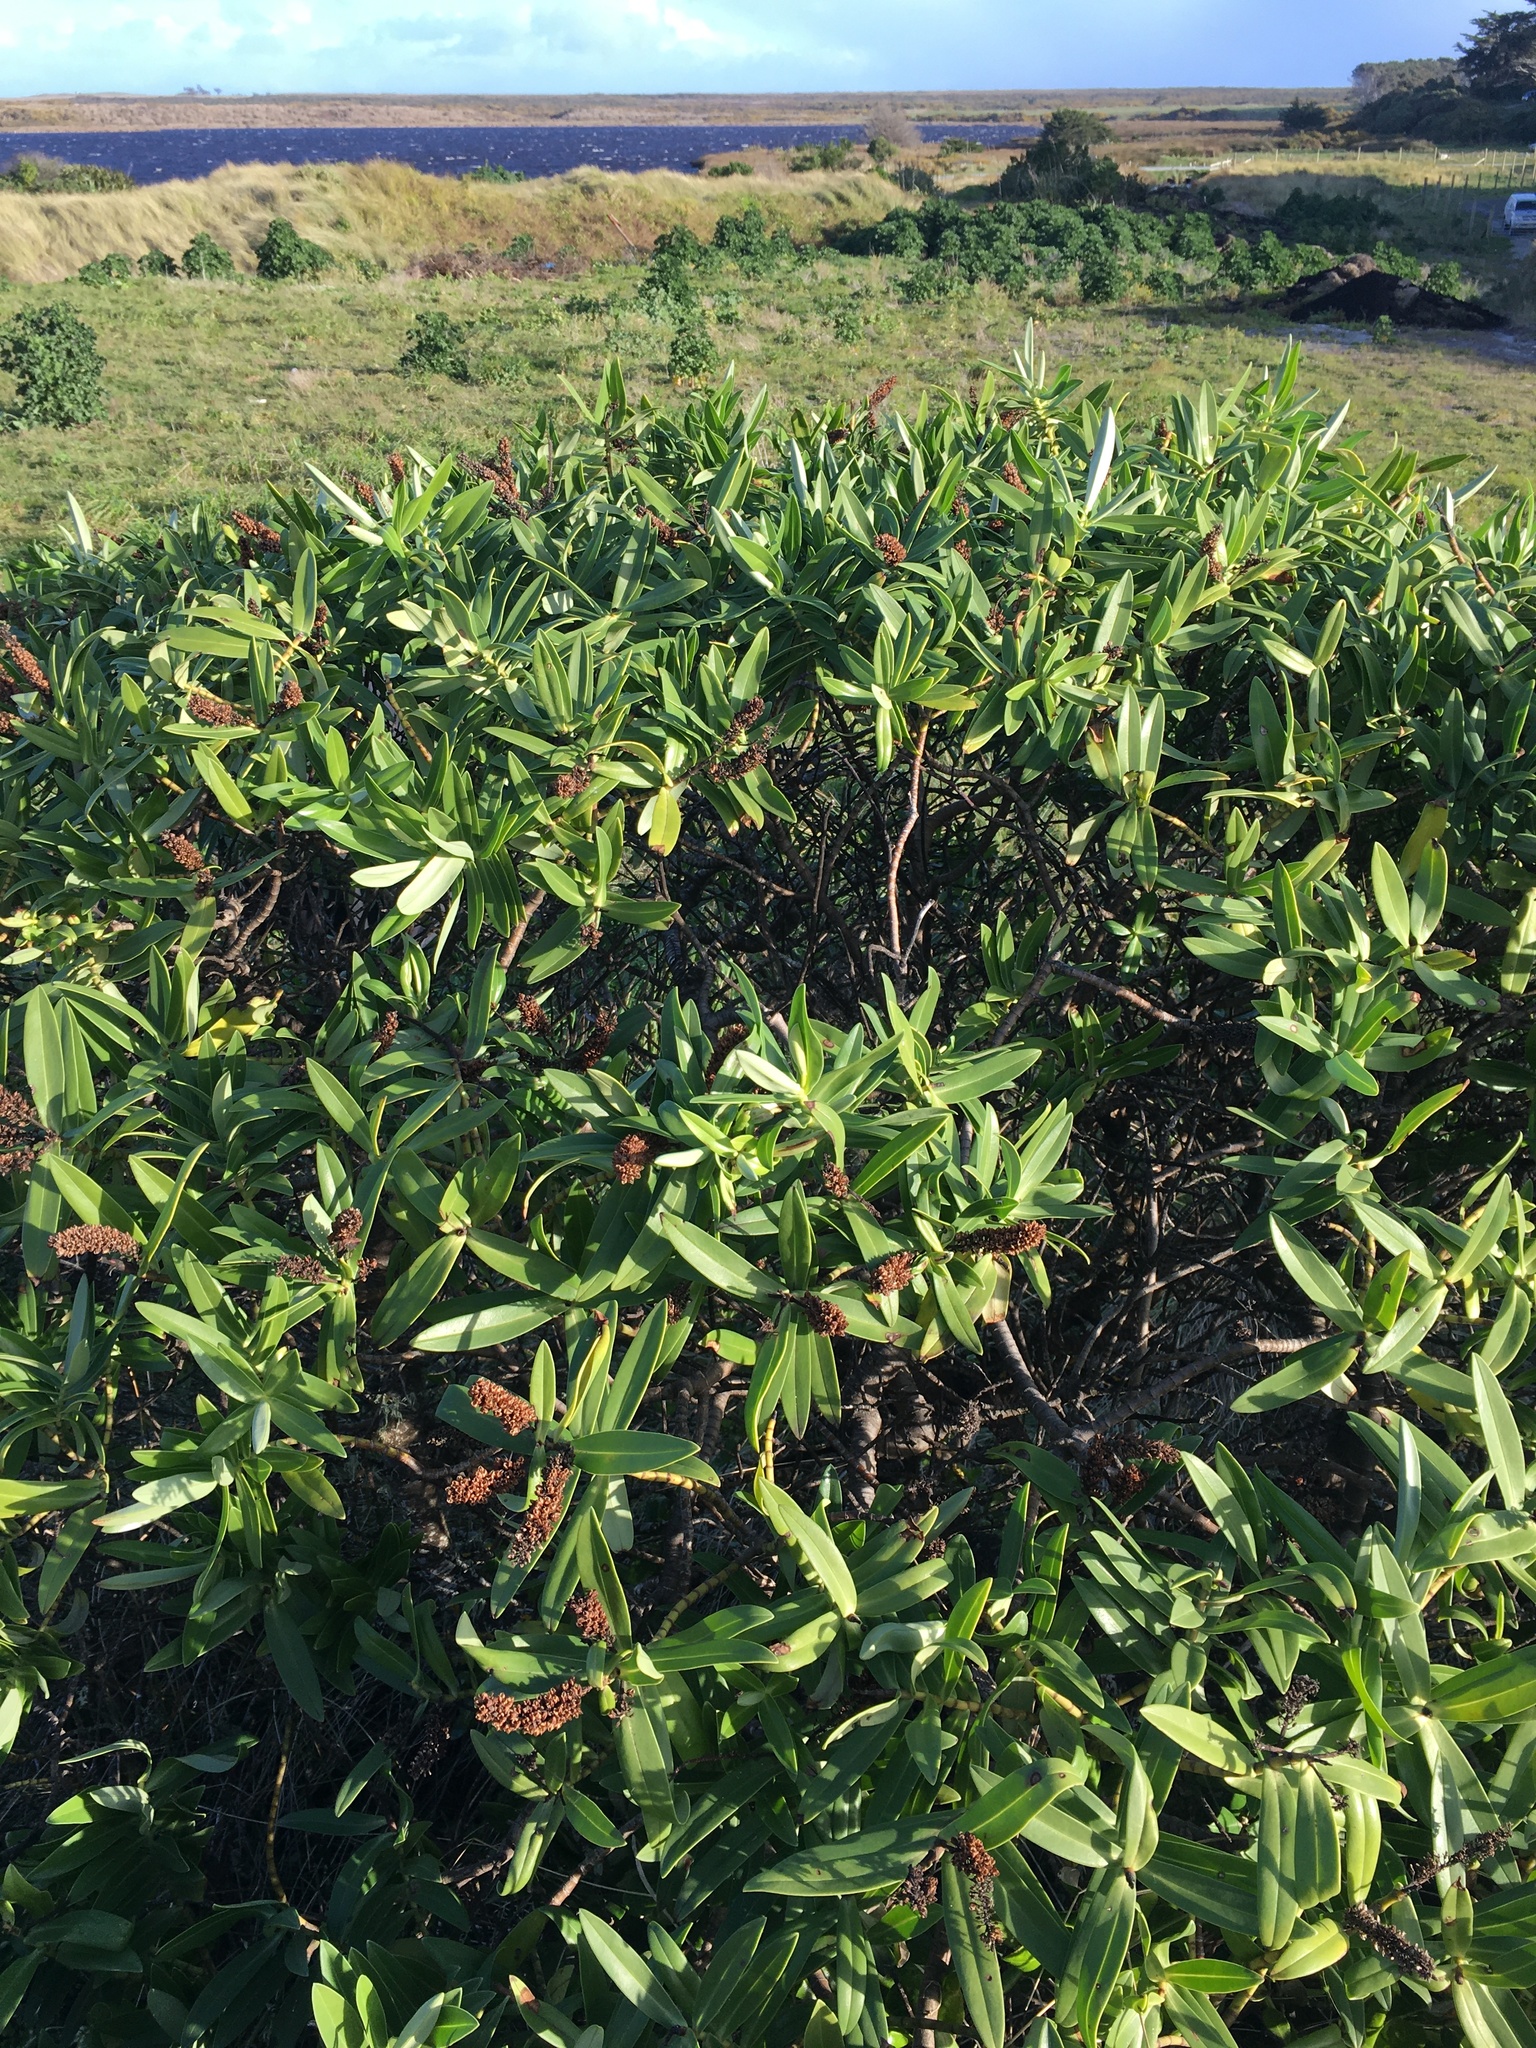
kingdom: Plantae
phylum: Tracheophyta
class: Magnoliopsida
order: Lamiales
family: Plantaginaceae
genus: Veronica
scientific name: Veronica dieffenbachii
